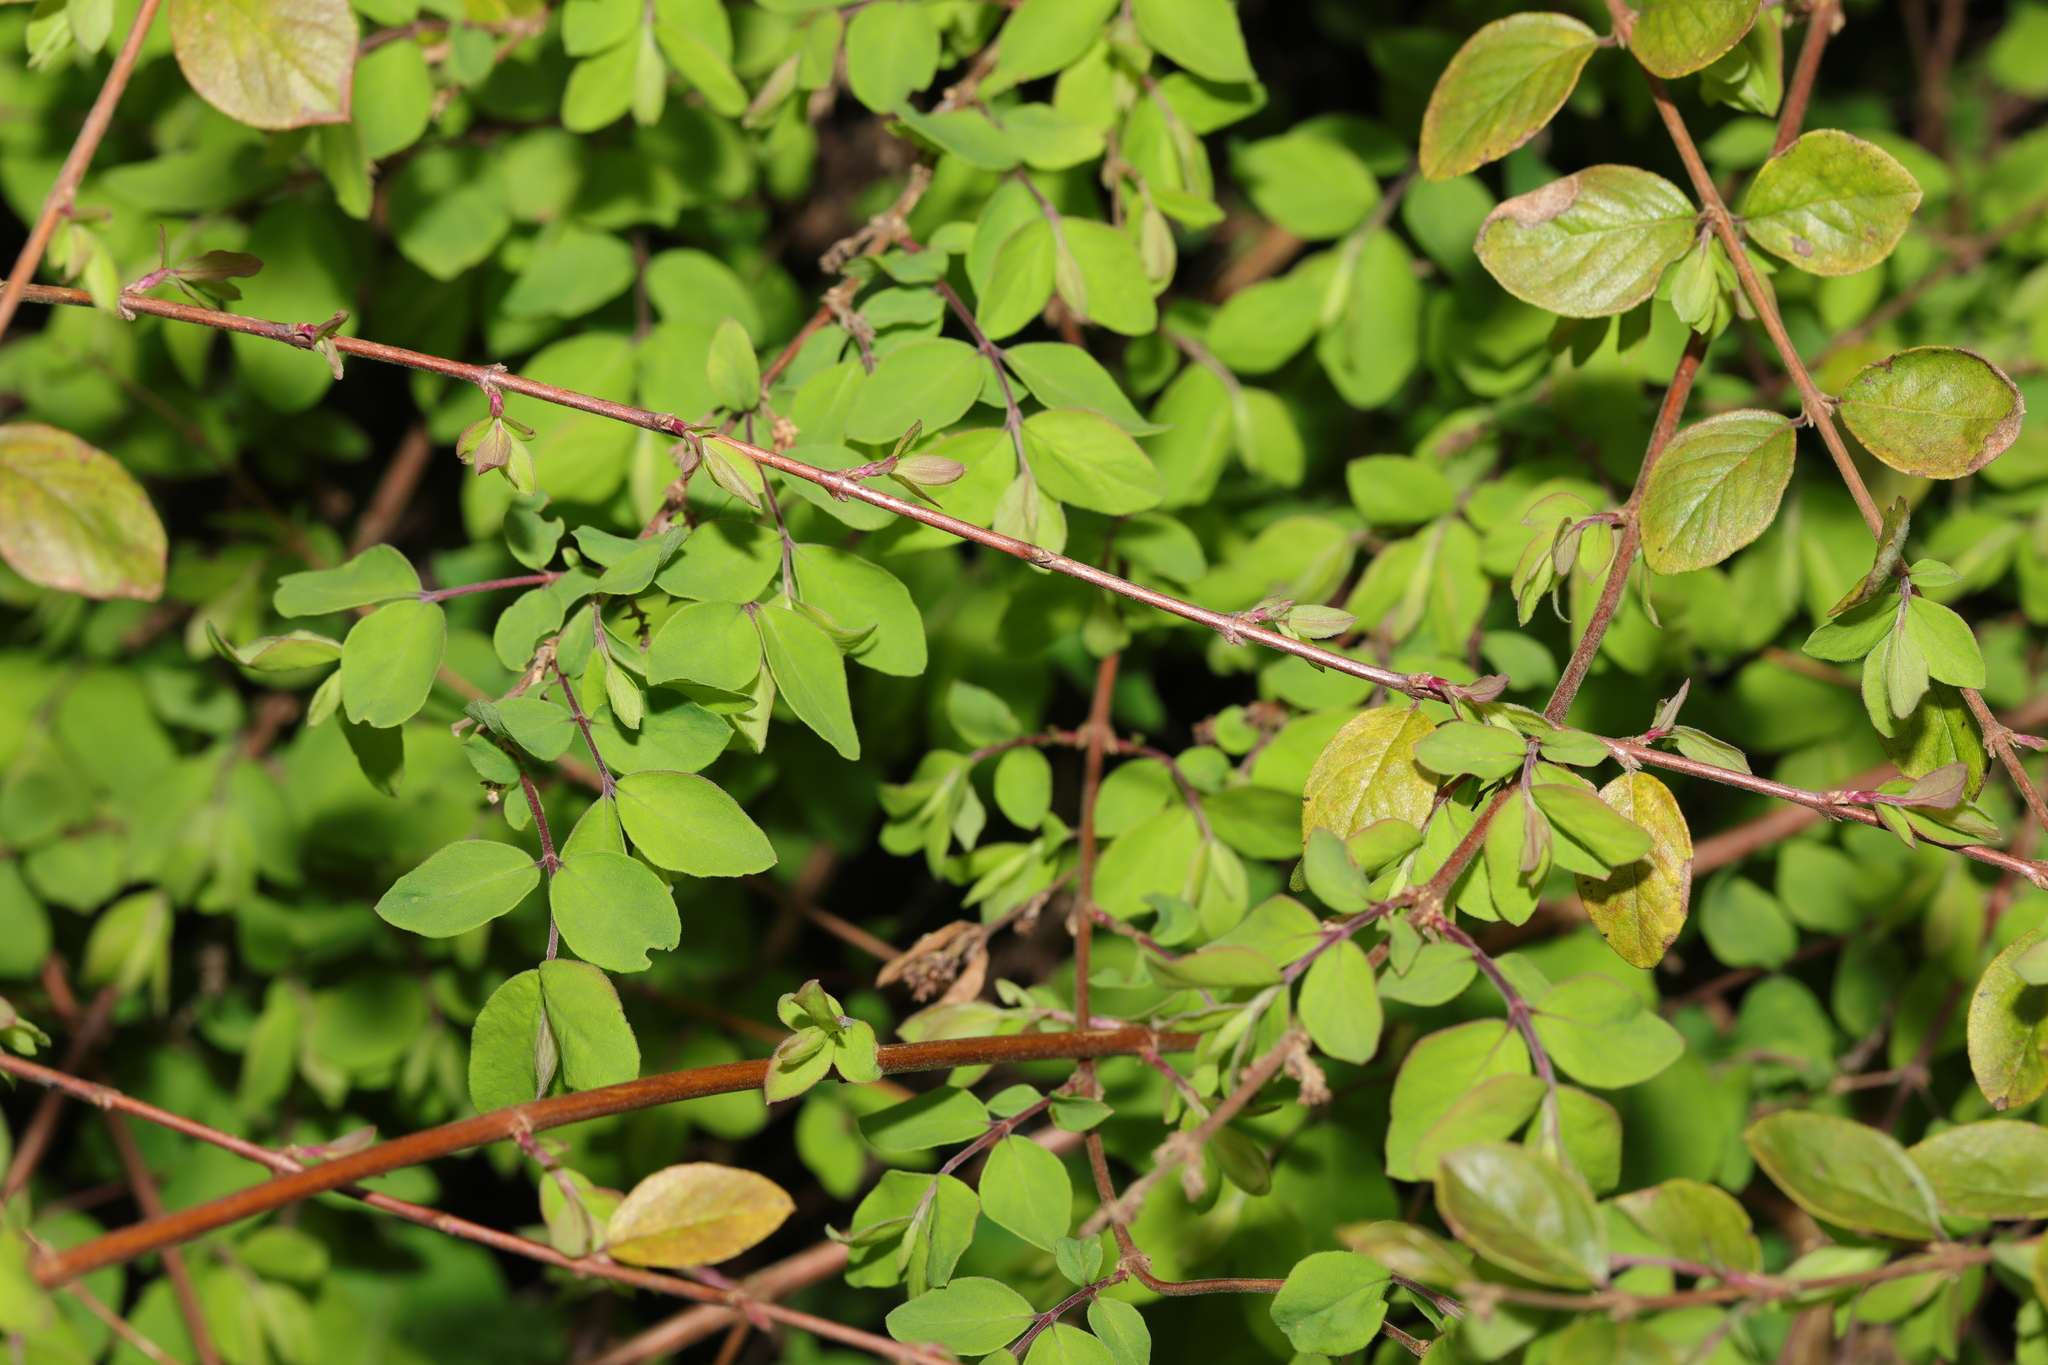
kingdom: Plantae
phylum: Tracheophyta
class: Magnoliopsida
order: Dipsacales
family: Caprifoliaceae
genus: Symphoricarpos
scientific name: Symphoricarpos chenaultii
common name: Hybrid coralberry
